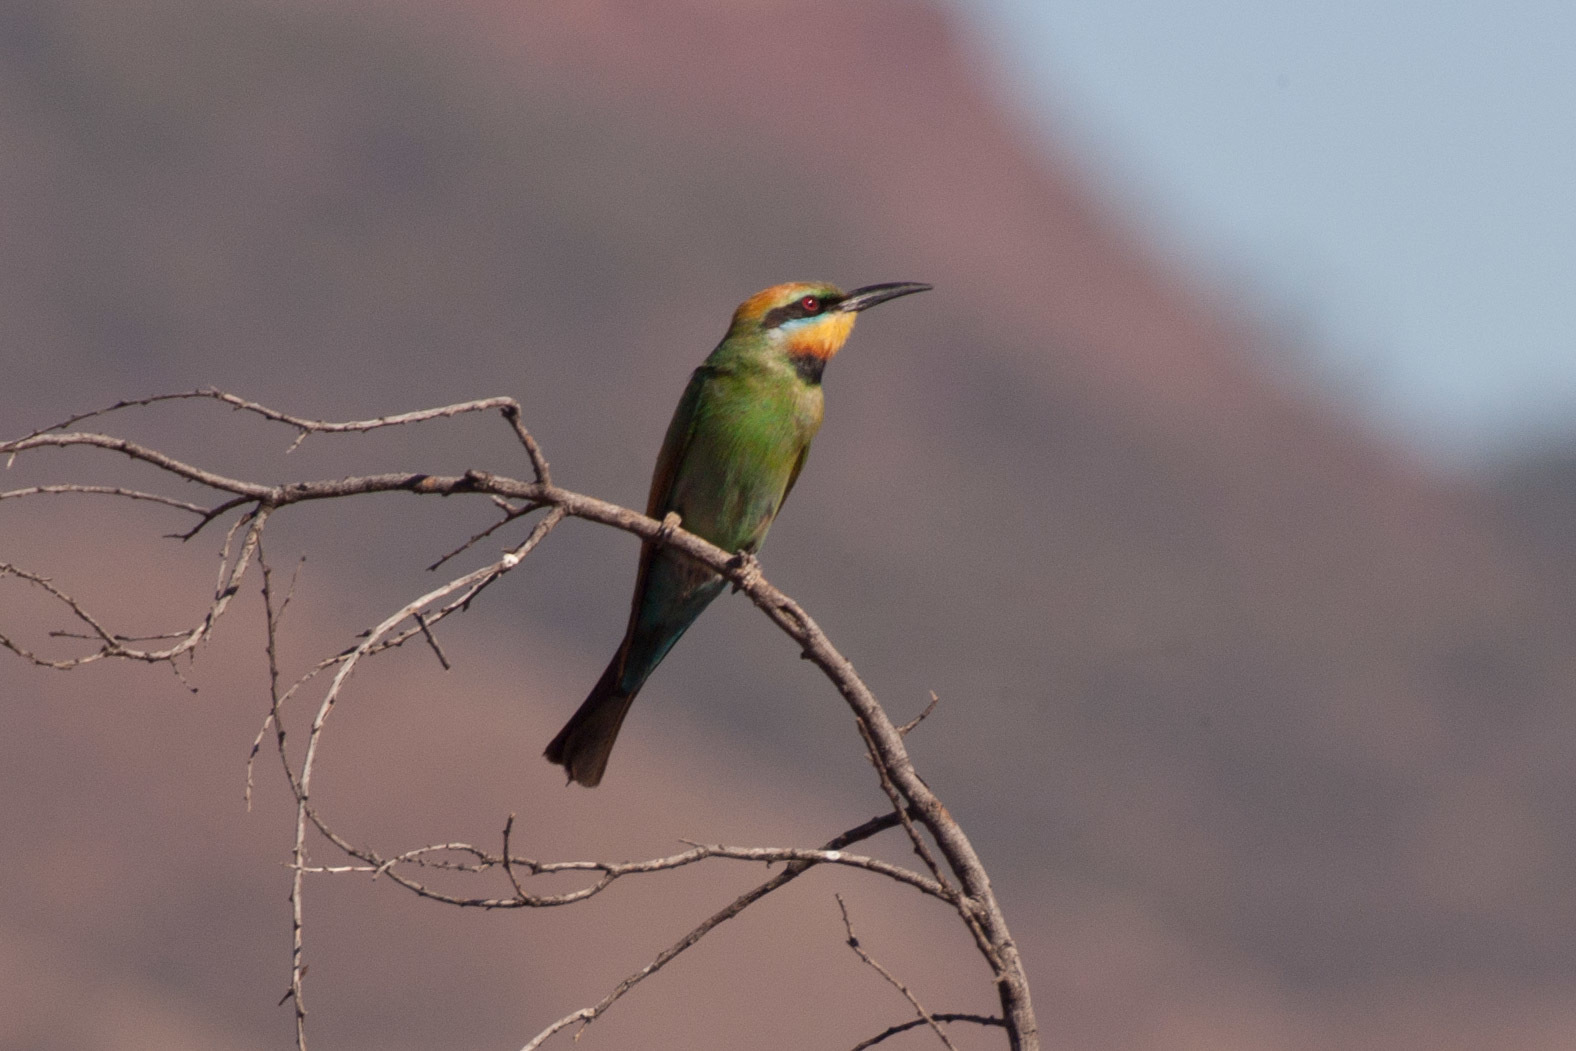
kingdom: Animalia
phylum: Chordata
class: Aves
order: Coraciiformes
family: Meropidae
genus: Merops
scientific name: Merops ornatus
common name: Rainbow bee-eater
